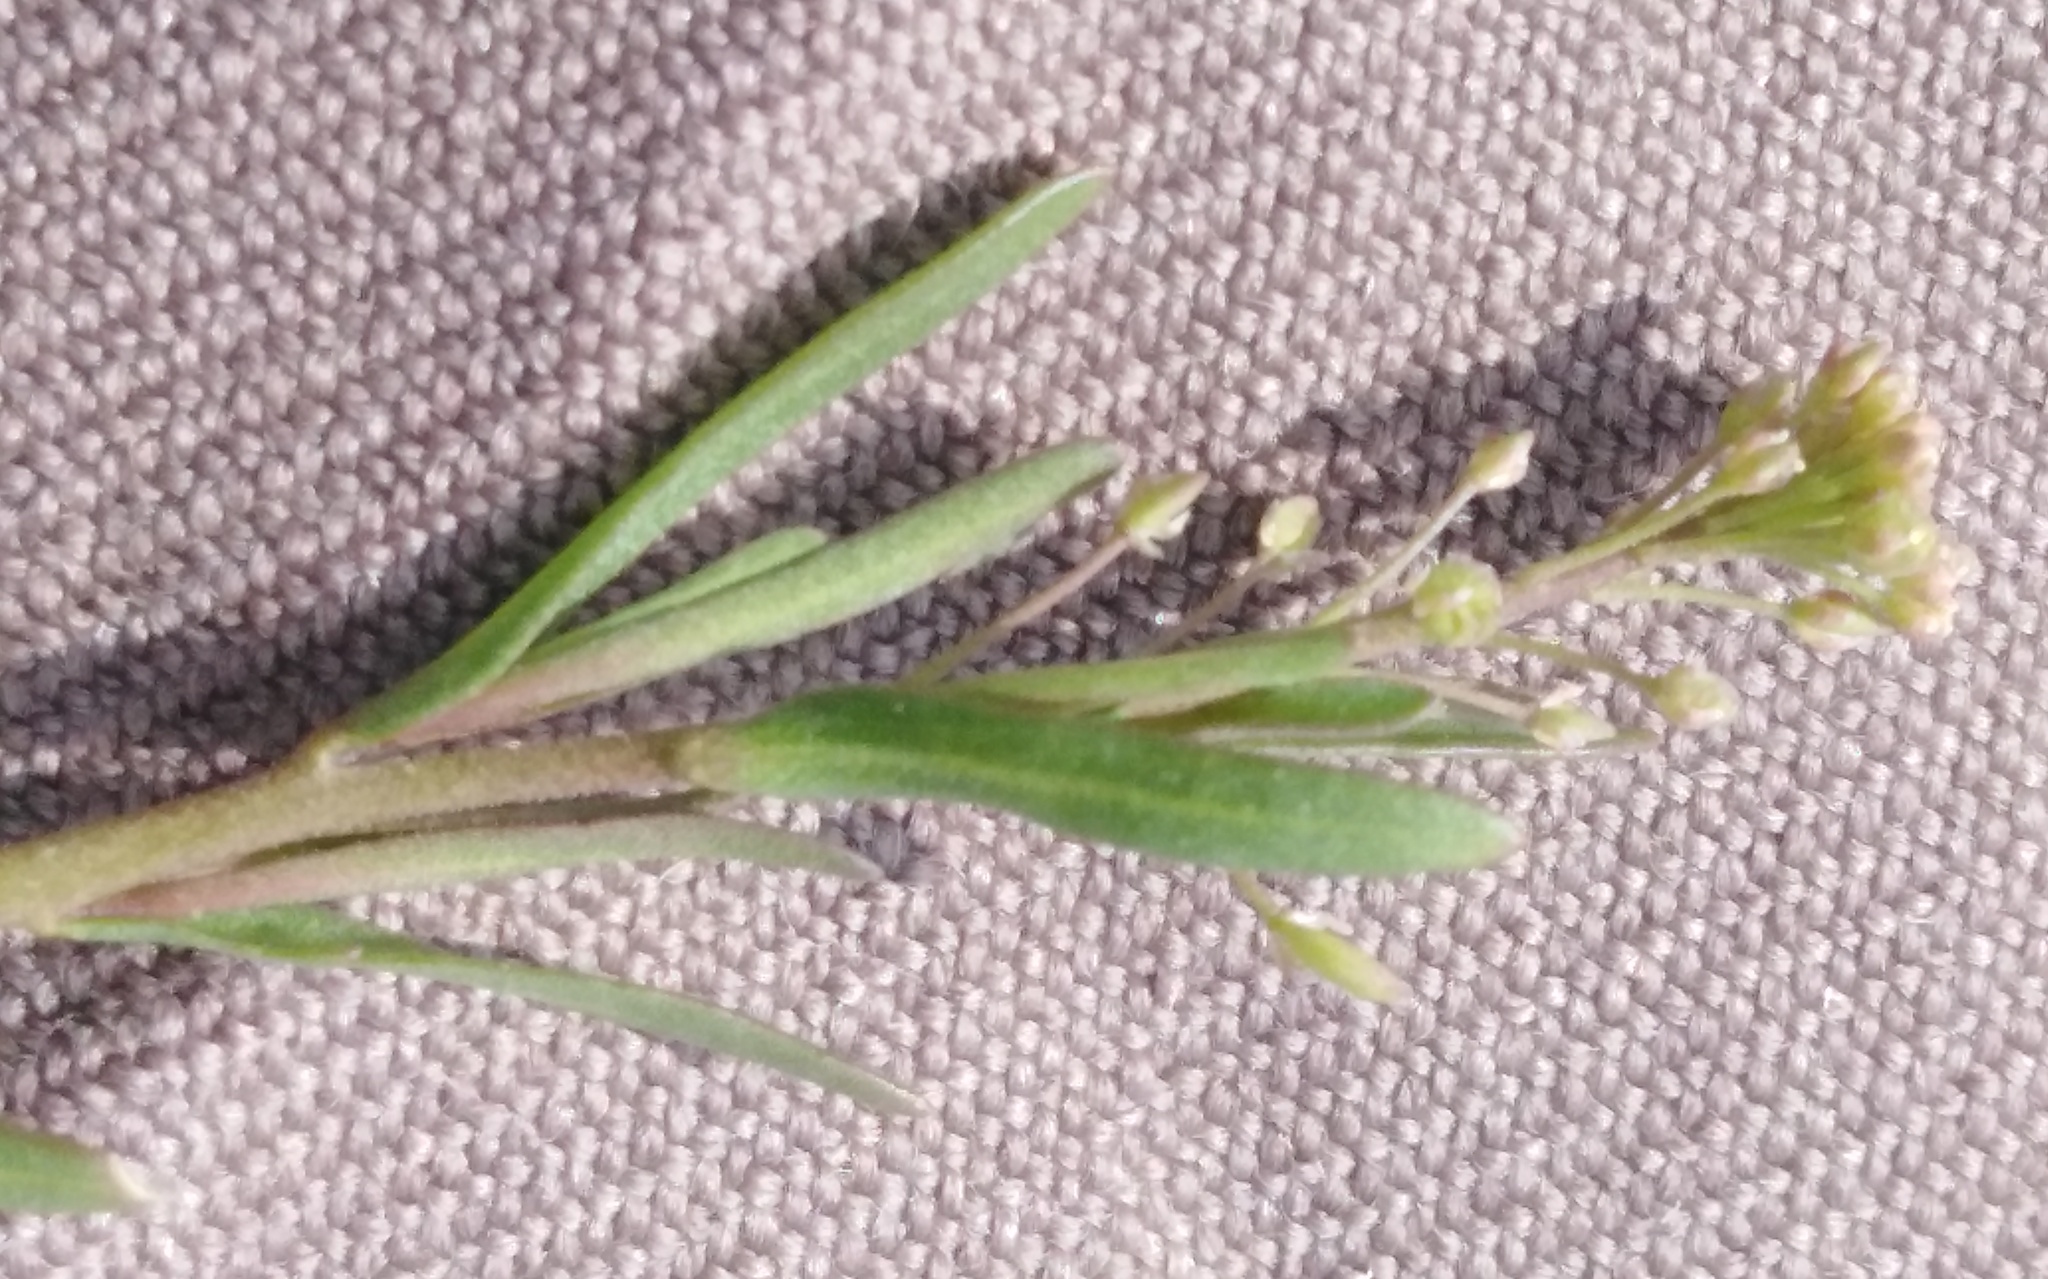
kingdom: Plantae
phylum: Tracheophyta
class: Magnoliopsida
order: Brassicales
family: Brassicaceae
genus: Lepidium
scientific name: Lepidium densiflorum
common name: Miner's pepperwort
